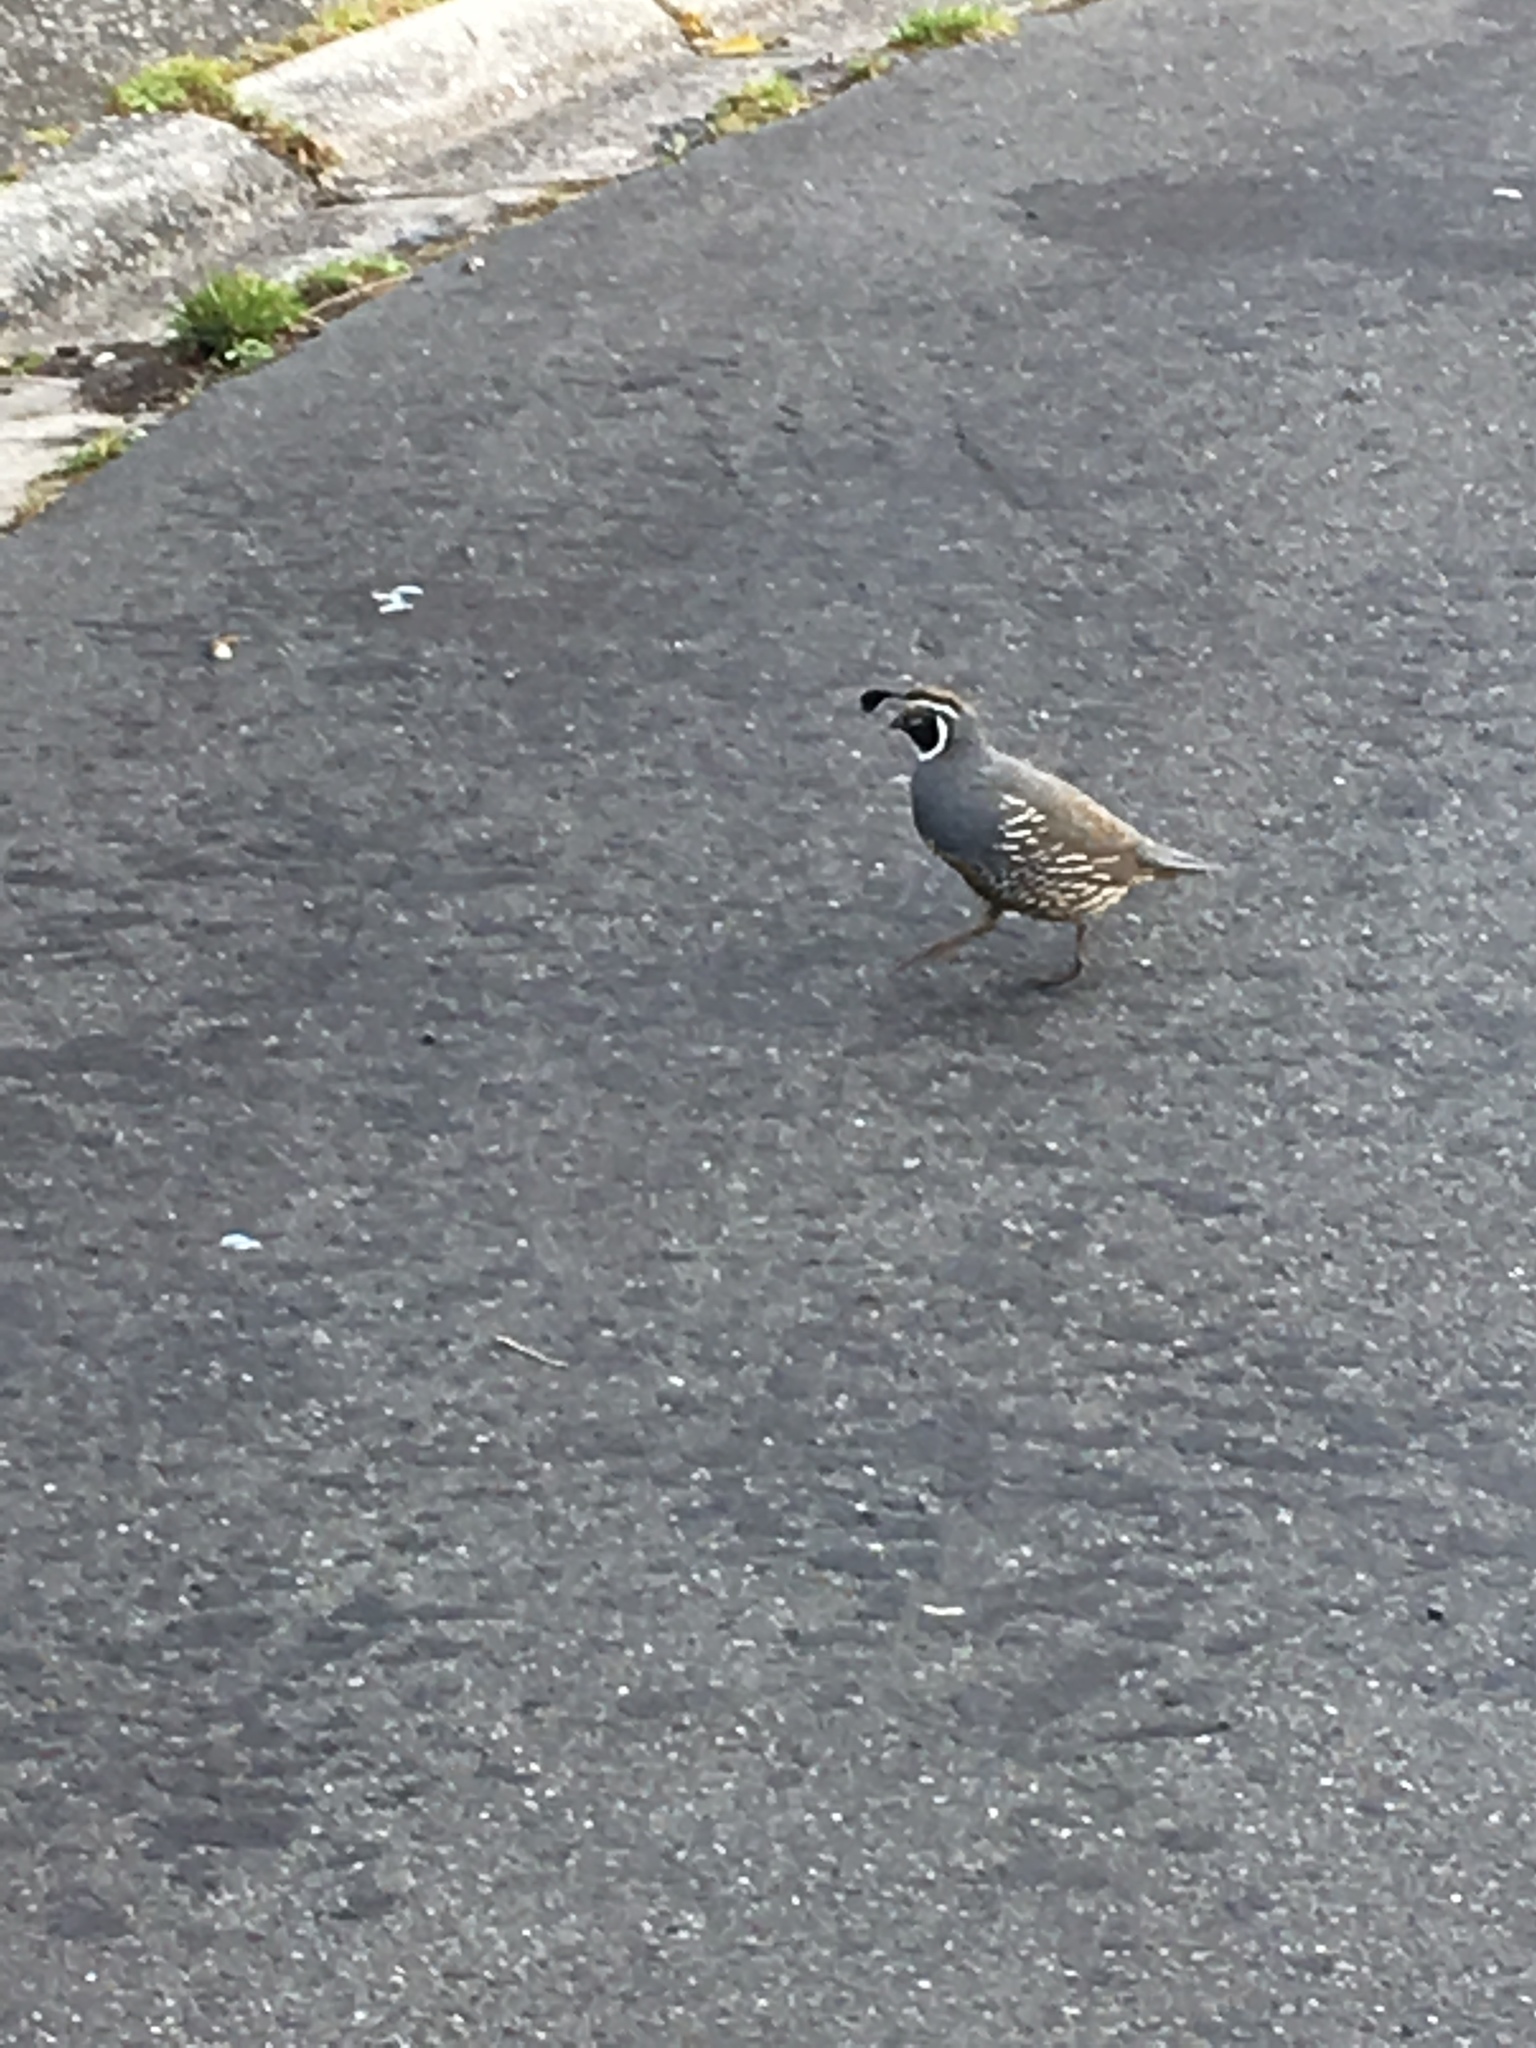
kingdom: Animalia
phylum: Chordata
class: Aves
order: Galliformes
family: Odontophoridae
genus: Callipepla
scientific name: Callipepla californica
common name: California quail
